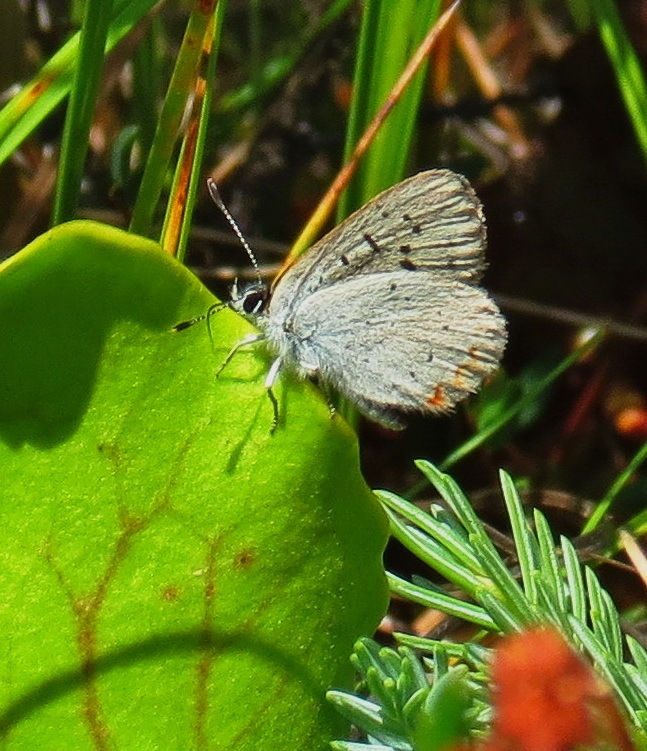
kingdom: Animalia
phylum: Arthropoda
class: Insecta
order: Lepidoptera
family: Lycaenidae
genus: Tharsalea
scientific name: Tharsalea epixanthe
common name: Bog copper
